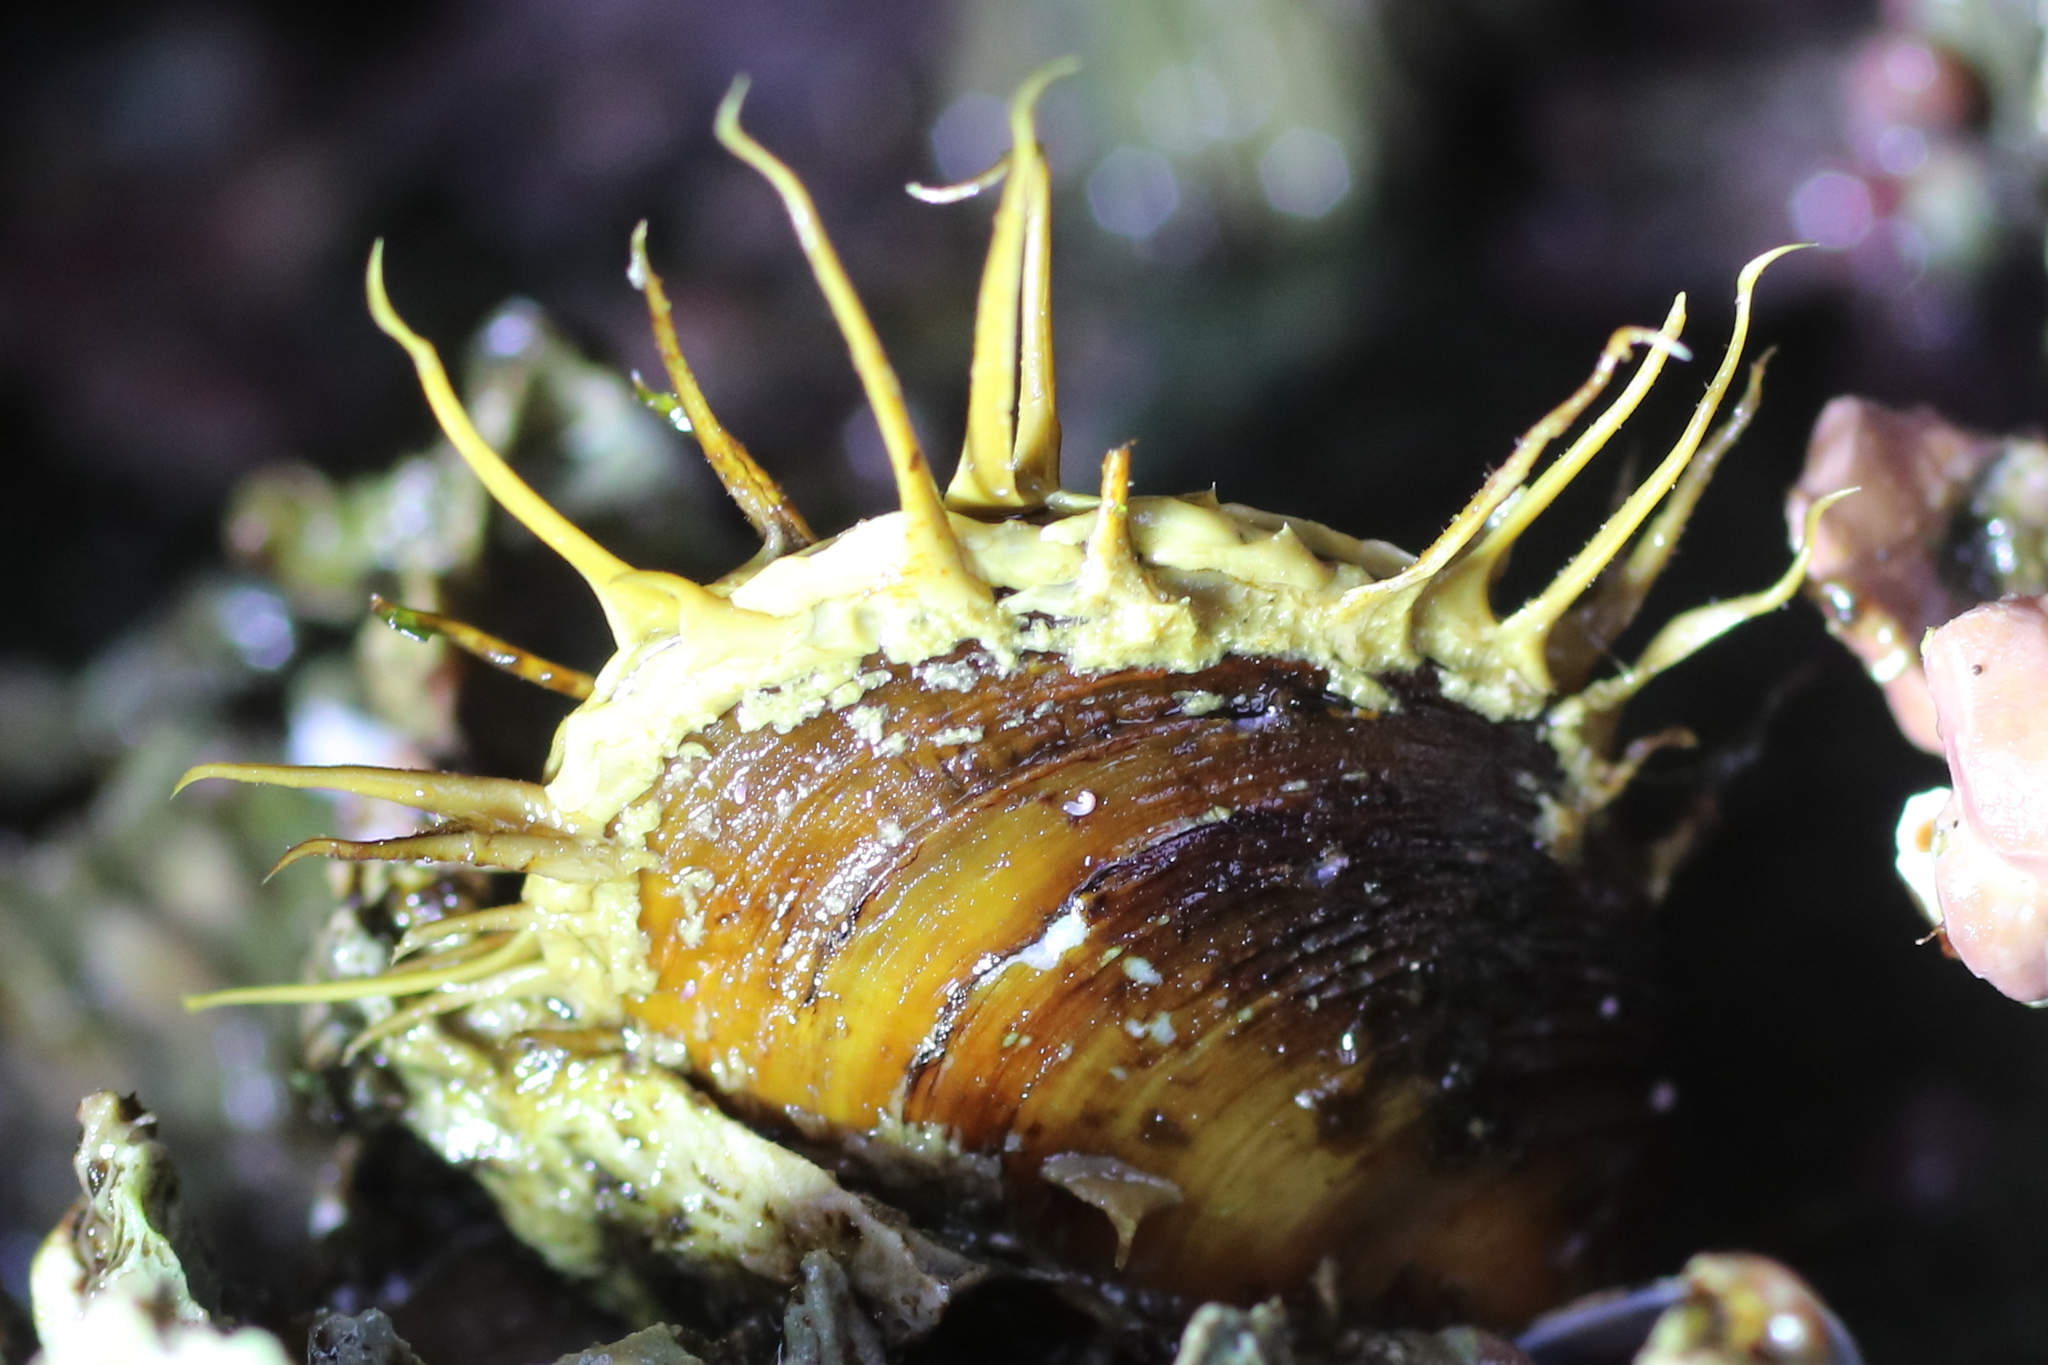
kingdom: Animalia
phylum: Mollusca
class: Bivalvia
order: Mytilida
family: Mytilidae
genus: Modiolus
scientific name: Modiolus modiolus
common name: Horse-mussel
